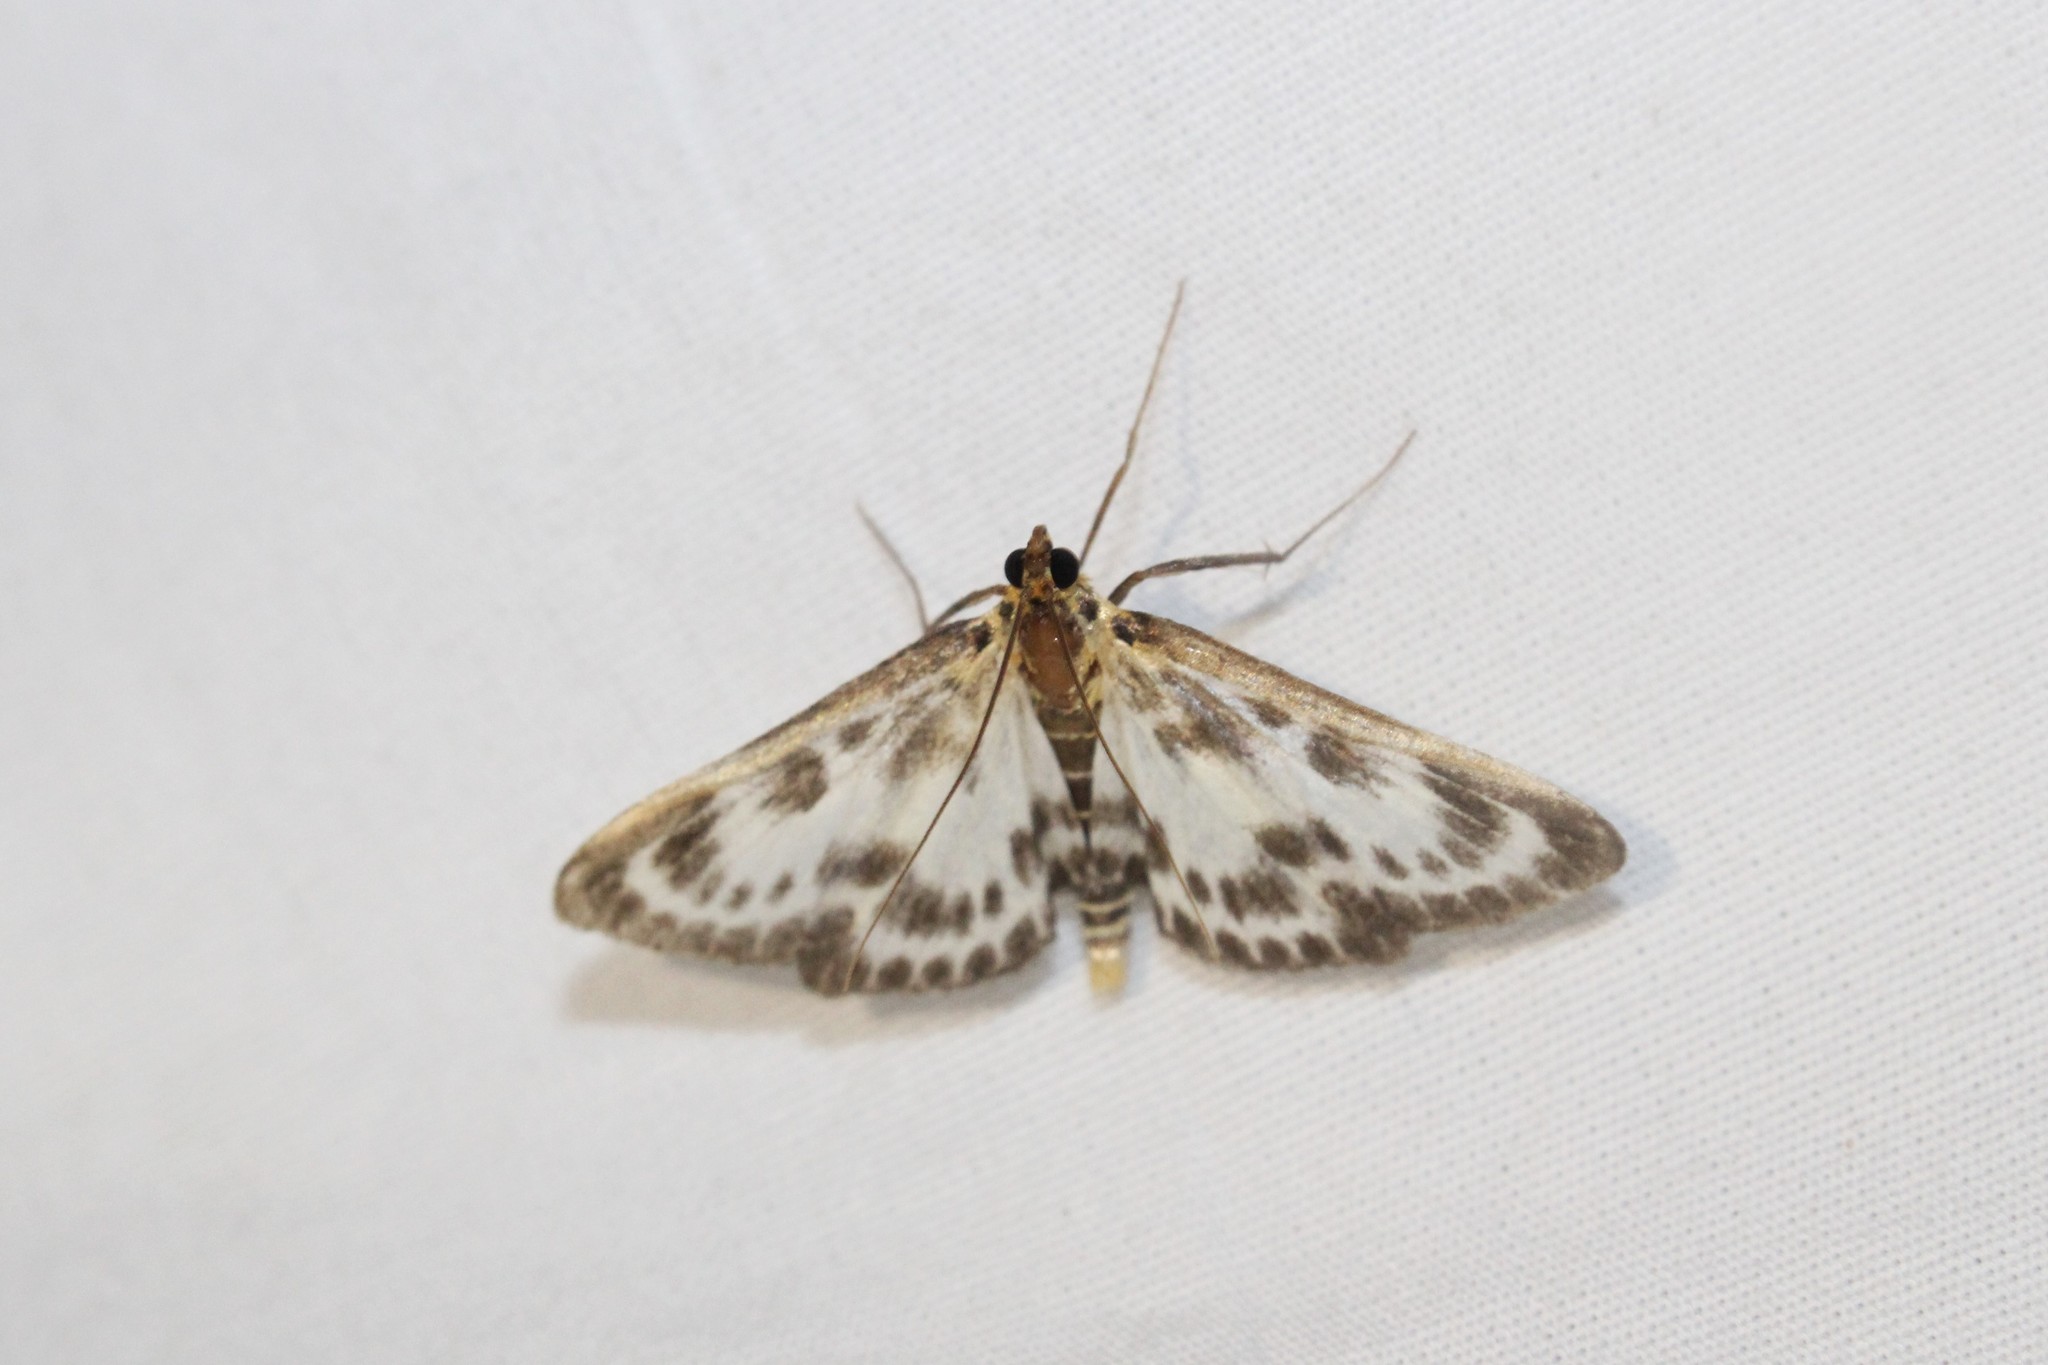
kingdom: Animalia
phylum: Arthropoda
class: Insecta
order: Lepidoptera
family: Crambidae
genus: Anania
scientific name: Anania hortulata
